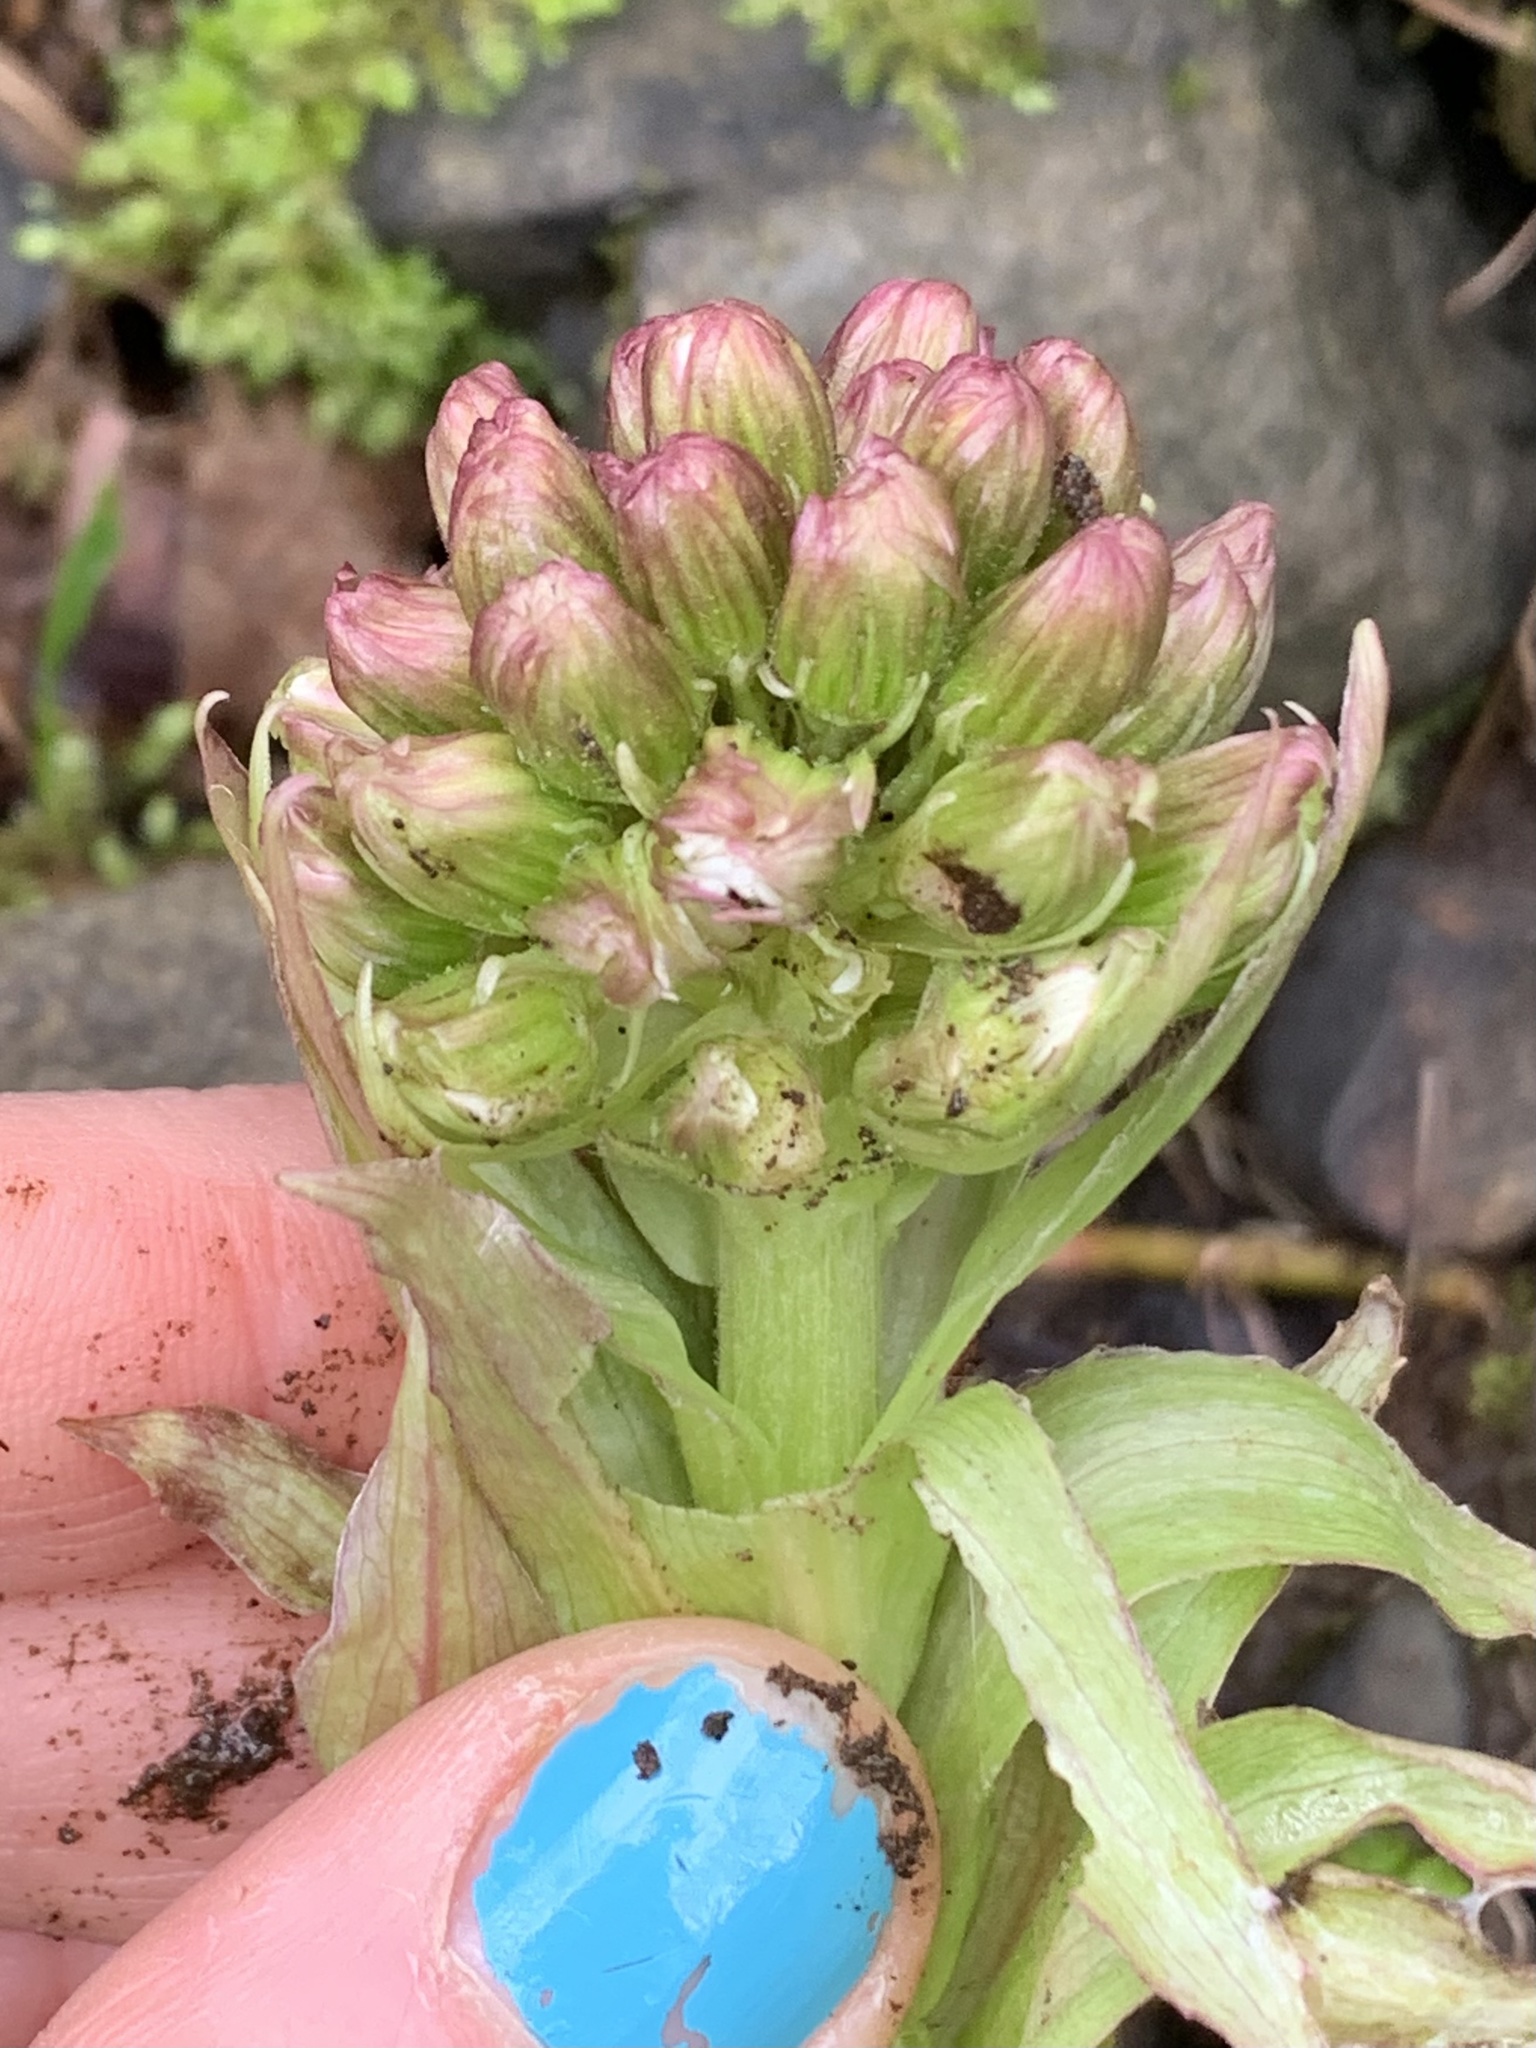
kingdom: Plantae
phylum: Tracheophyta
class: Magnoliopsida
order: Asterales
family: Asteraceae
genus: Petasites
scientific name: Petasites frigidus
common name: Arctic butterbur
